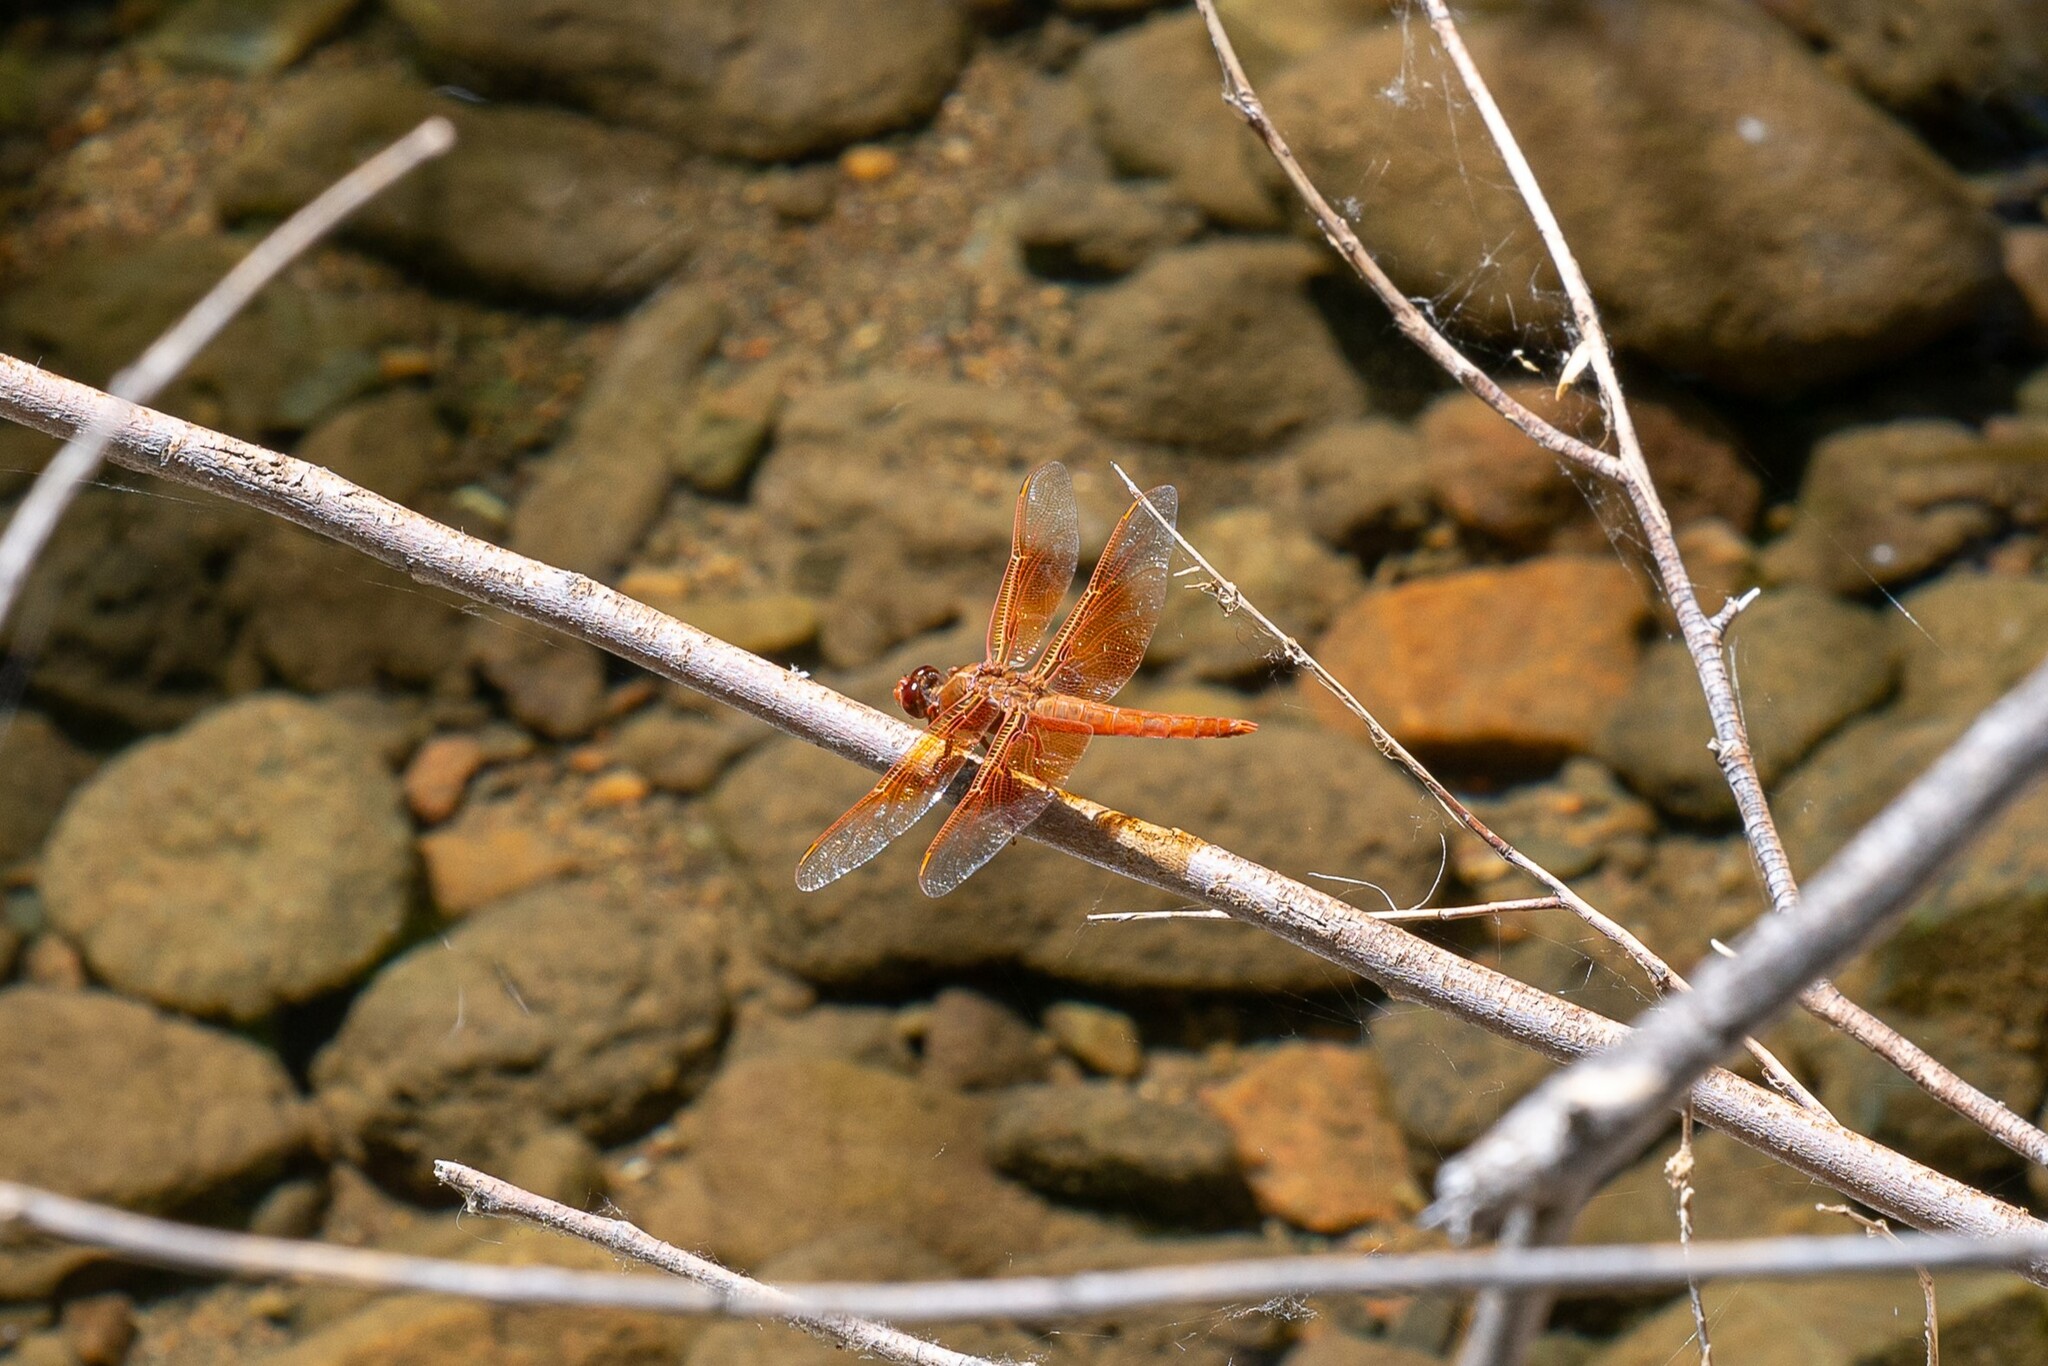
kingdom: Animalia
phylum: Arthropoda
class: Insecta
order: Odonata
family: Libellulidae
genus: Libellula
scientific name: Libellula saturata
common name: Flame skimmer
